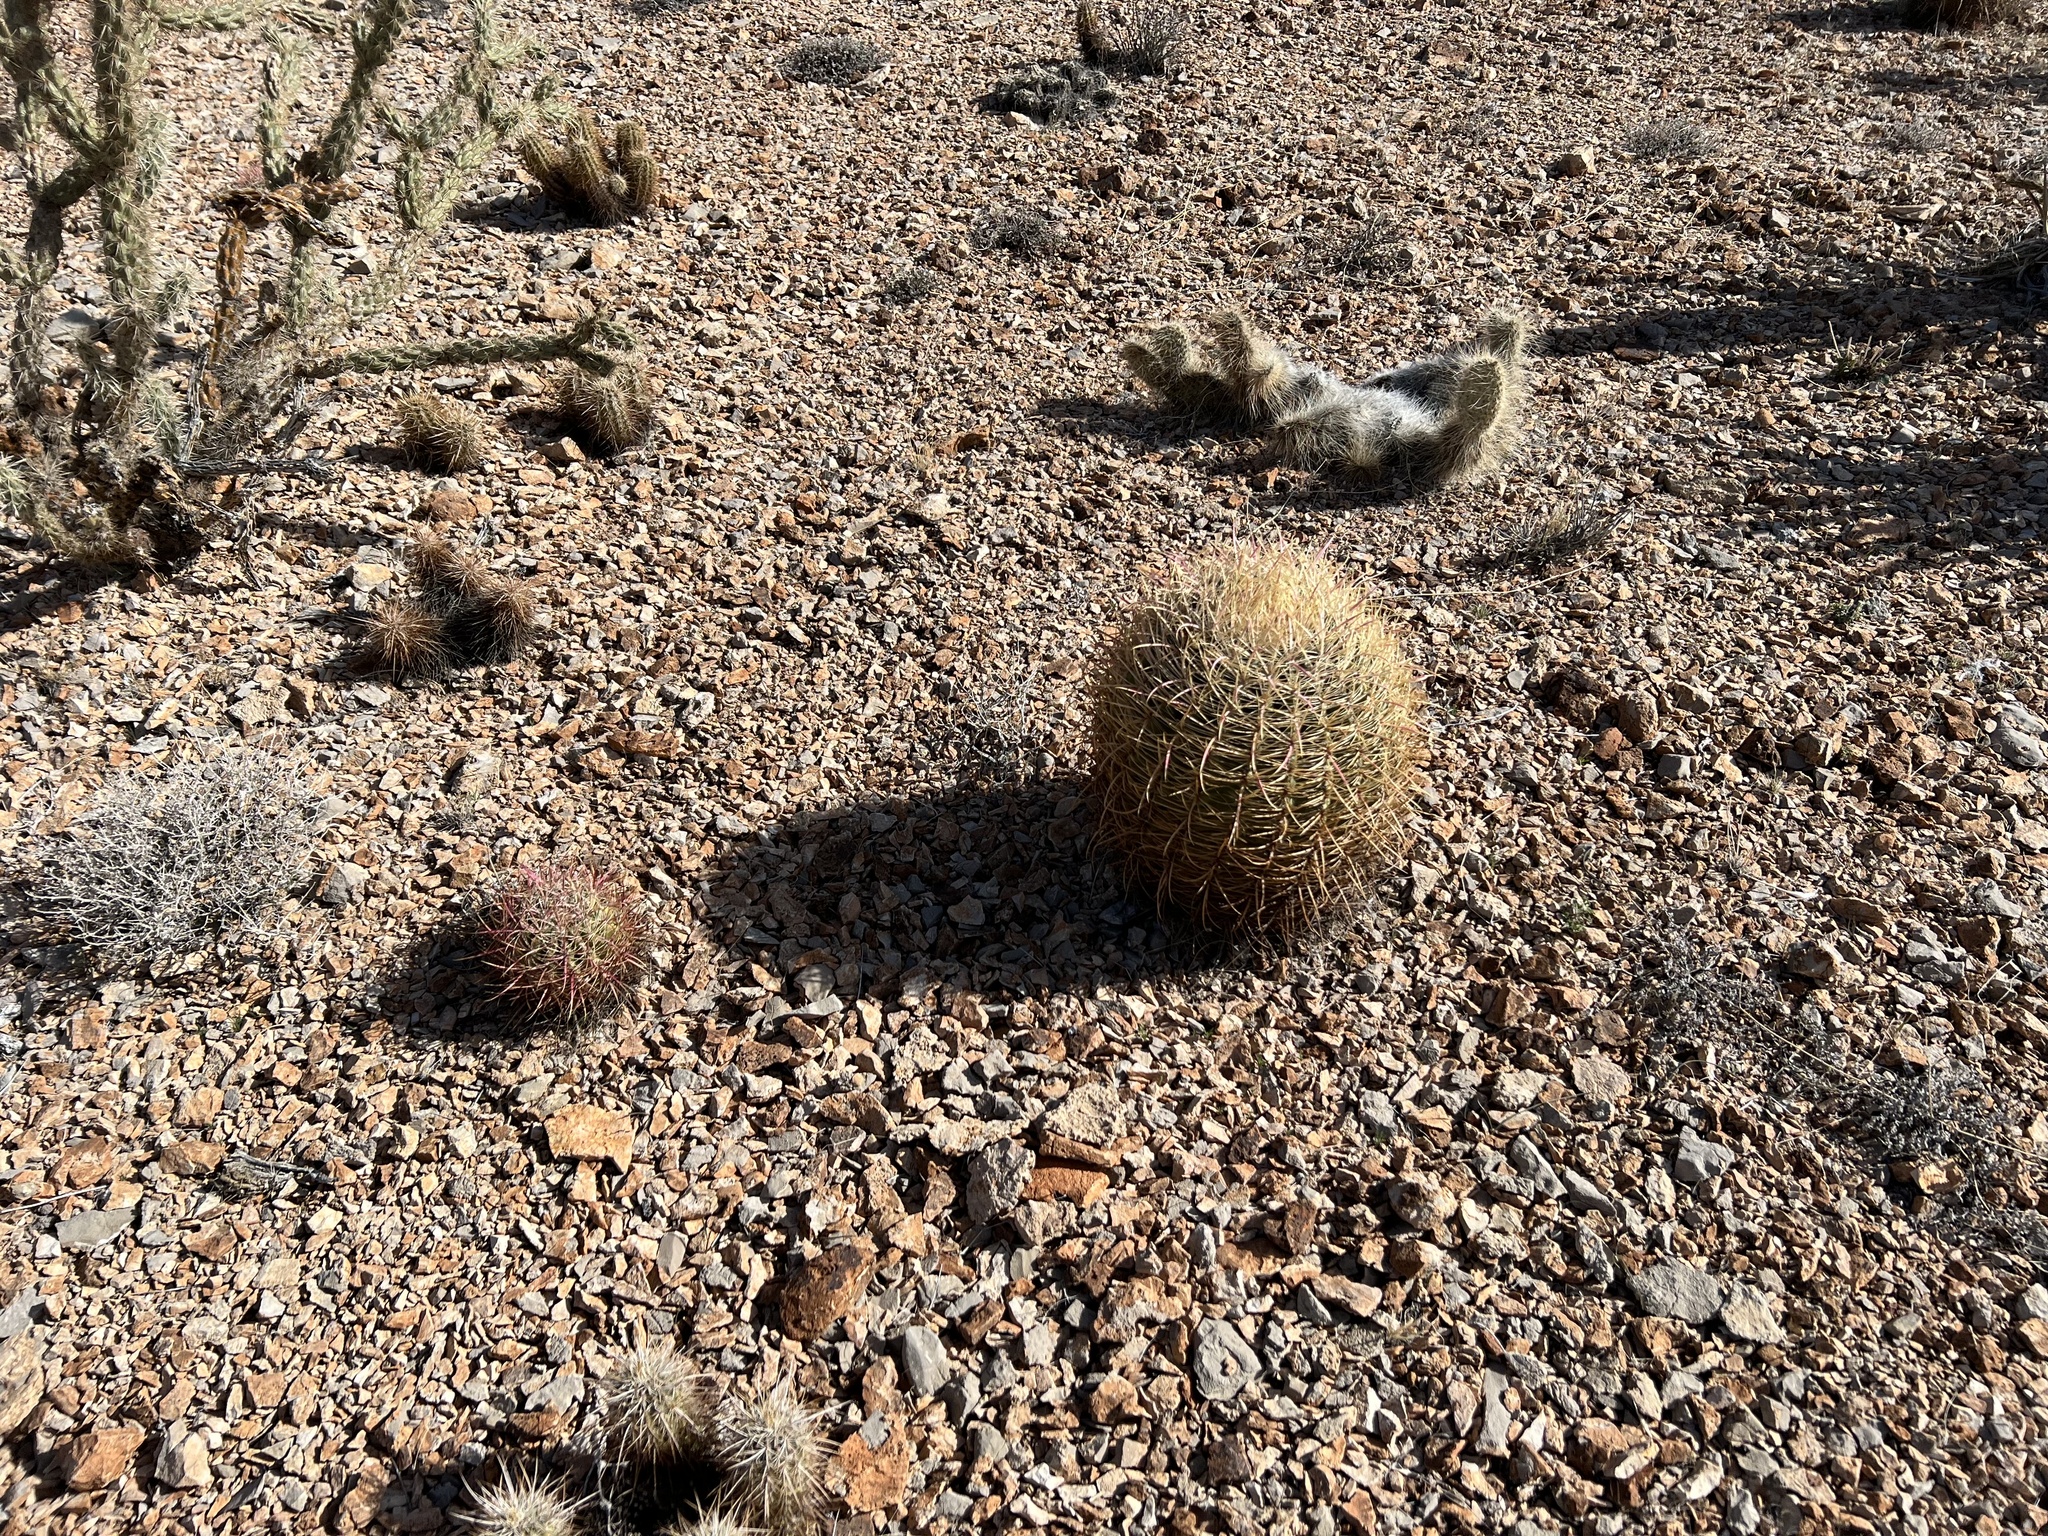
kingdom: Plantae
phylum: Tracheophyta
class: Magnoliopsida
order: Caryophyllales
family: Cactaceae
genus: Ferocactus
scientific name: Ferocactus cylindraceus
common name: California barrel cactus
